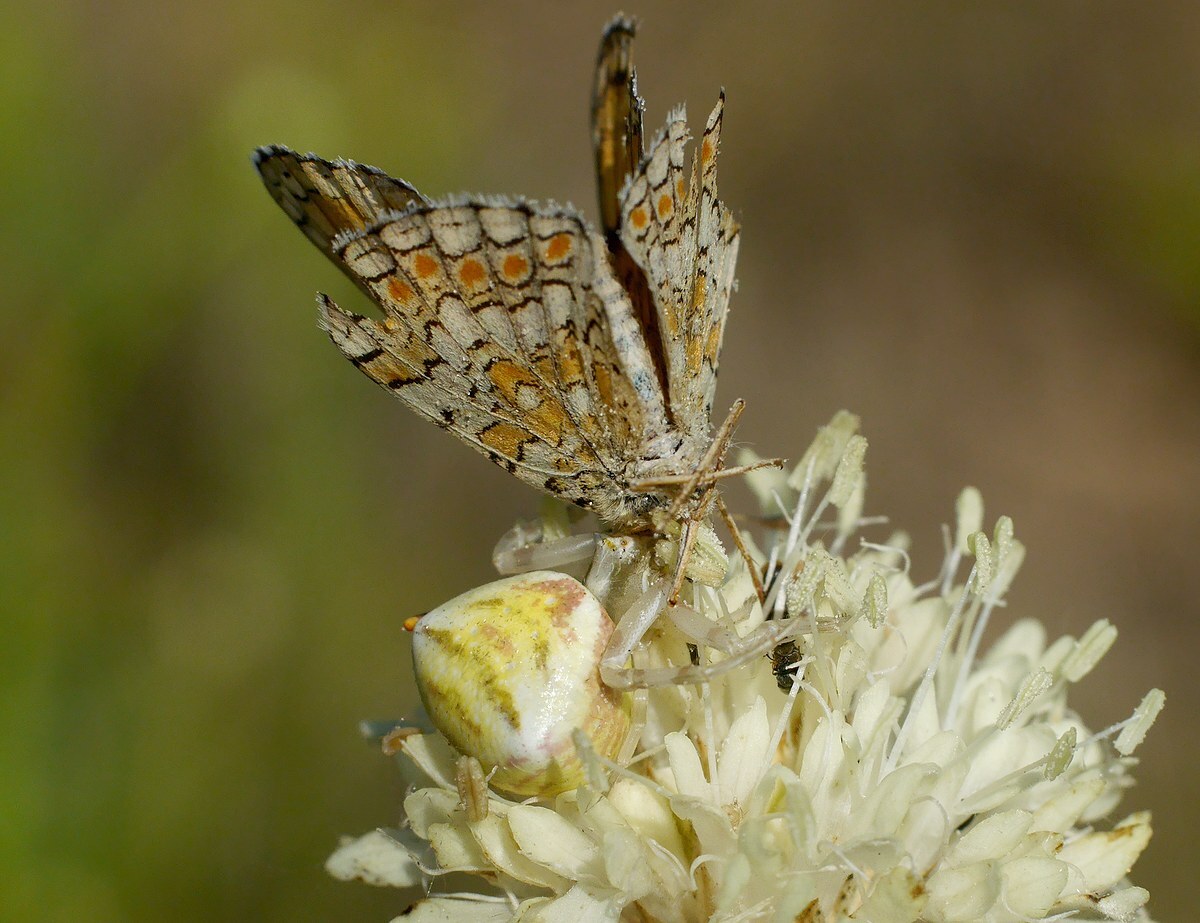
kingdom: Animalia
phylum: Arthropoda
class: Arachnida
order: Araneae
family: Thomisidae
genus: Thomisus
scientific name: Thomisus onustus
